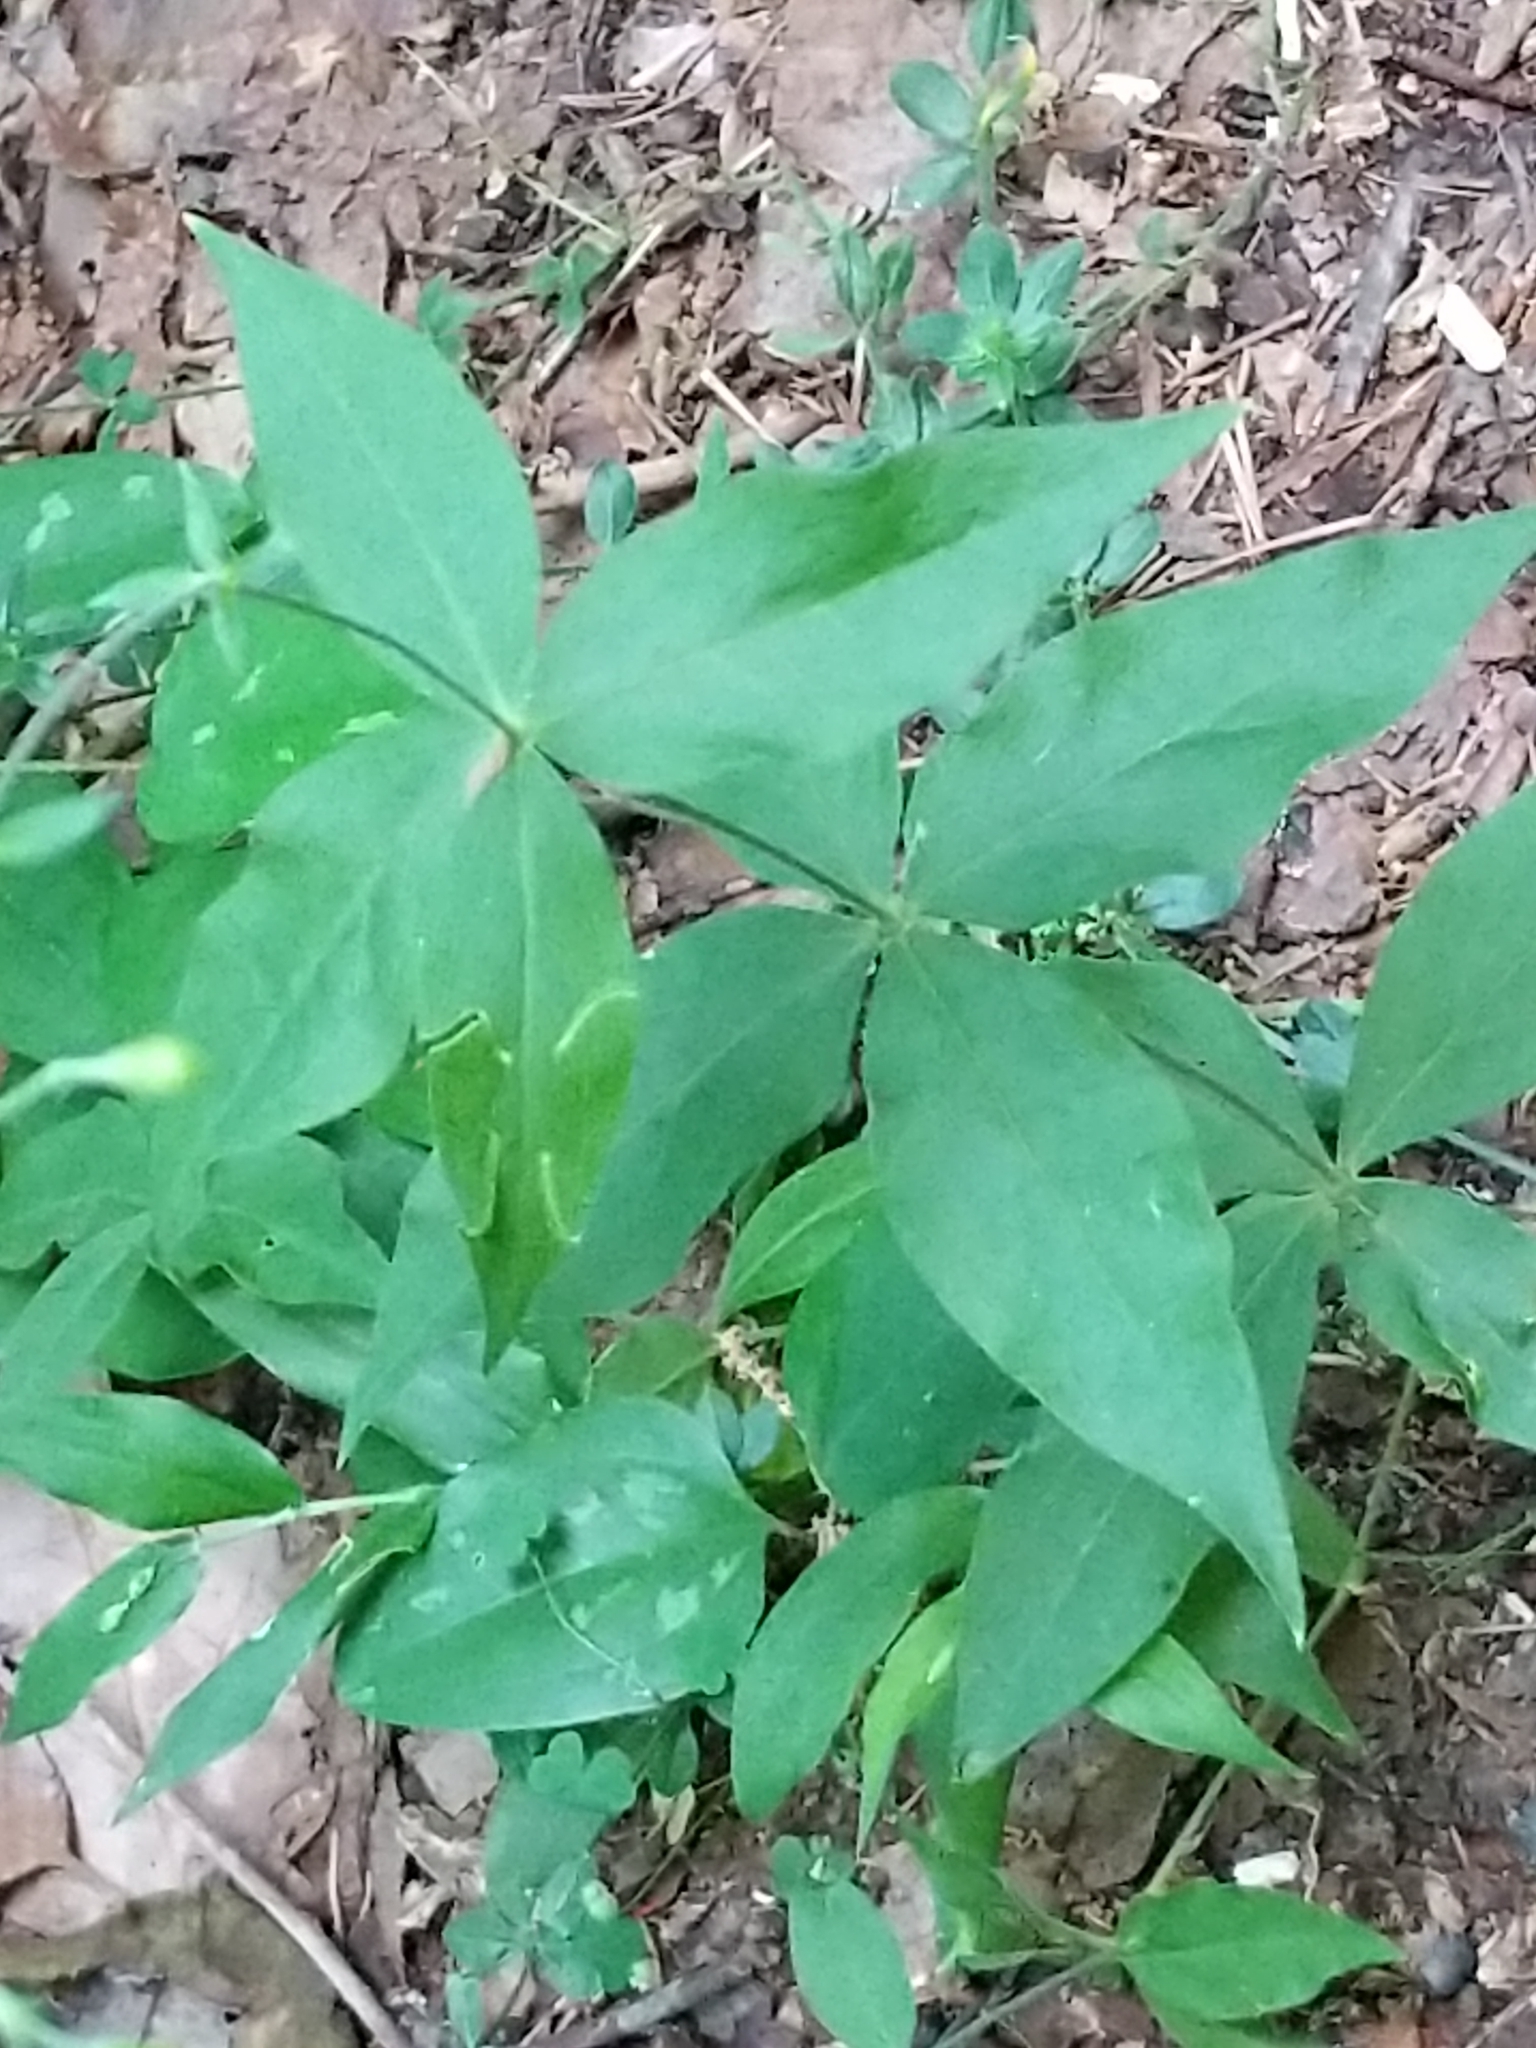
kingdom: Plantae
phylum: Tracheophyta
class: Magnoliopsida
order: Caryophyllales
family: Caryophyllaceae
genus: Silene
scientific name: Silene stellata
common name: Starry campion
